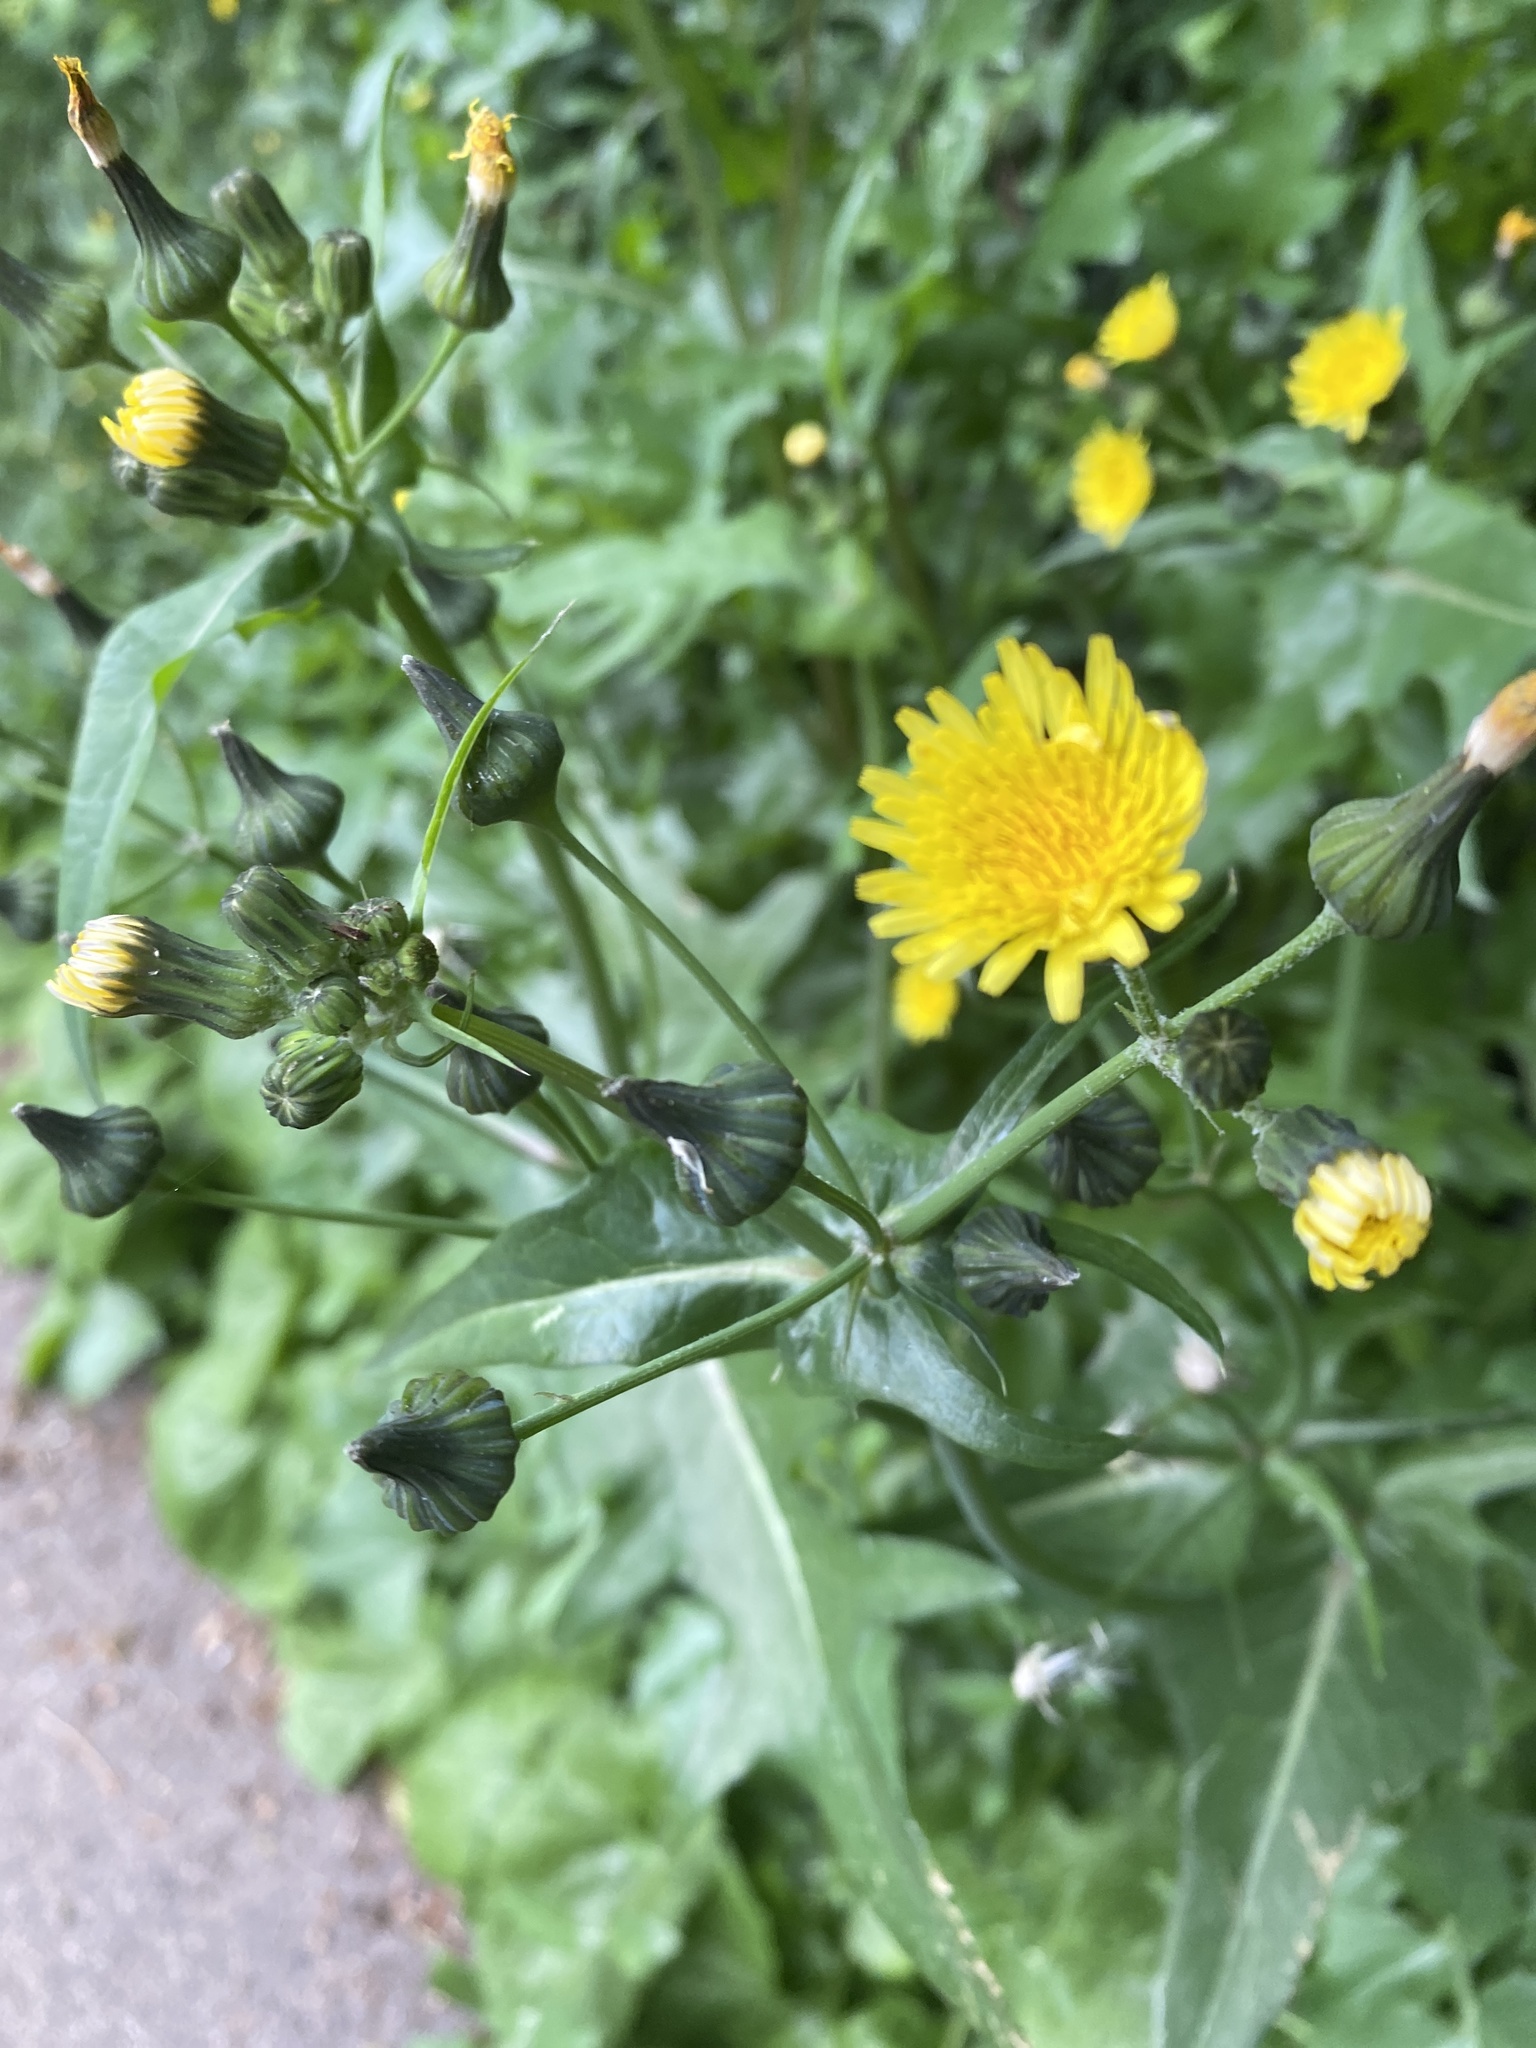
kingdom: Plantae
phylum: Tracheophyta
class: Magnoliopsida
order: Asterales
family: Asteraceae
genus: Sonchus
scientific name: Sonchus oleraceus
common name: Common sowthistle
